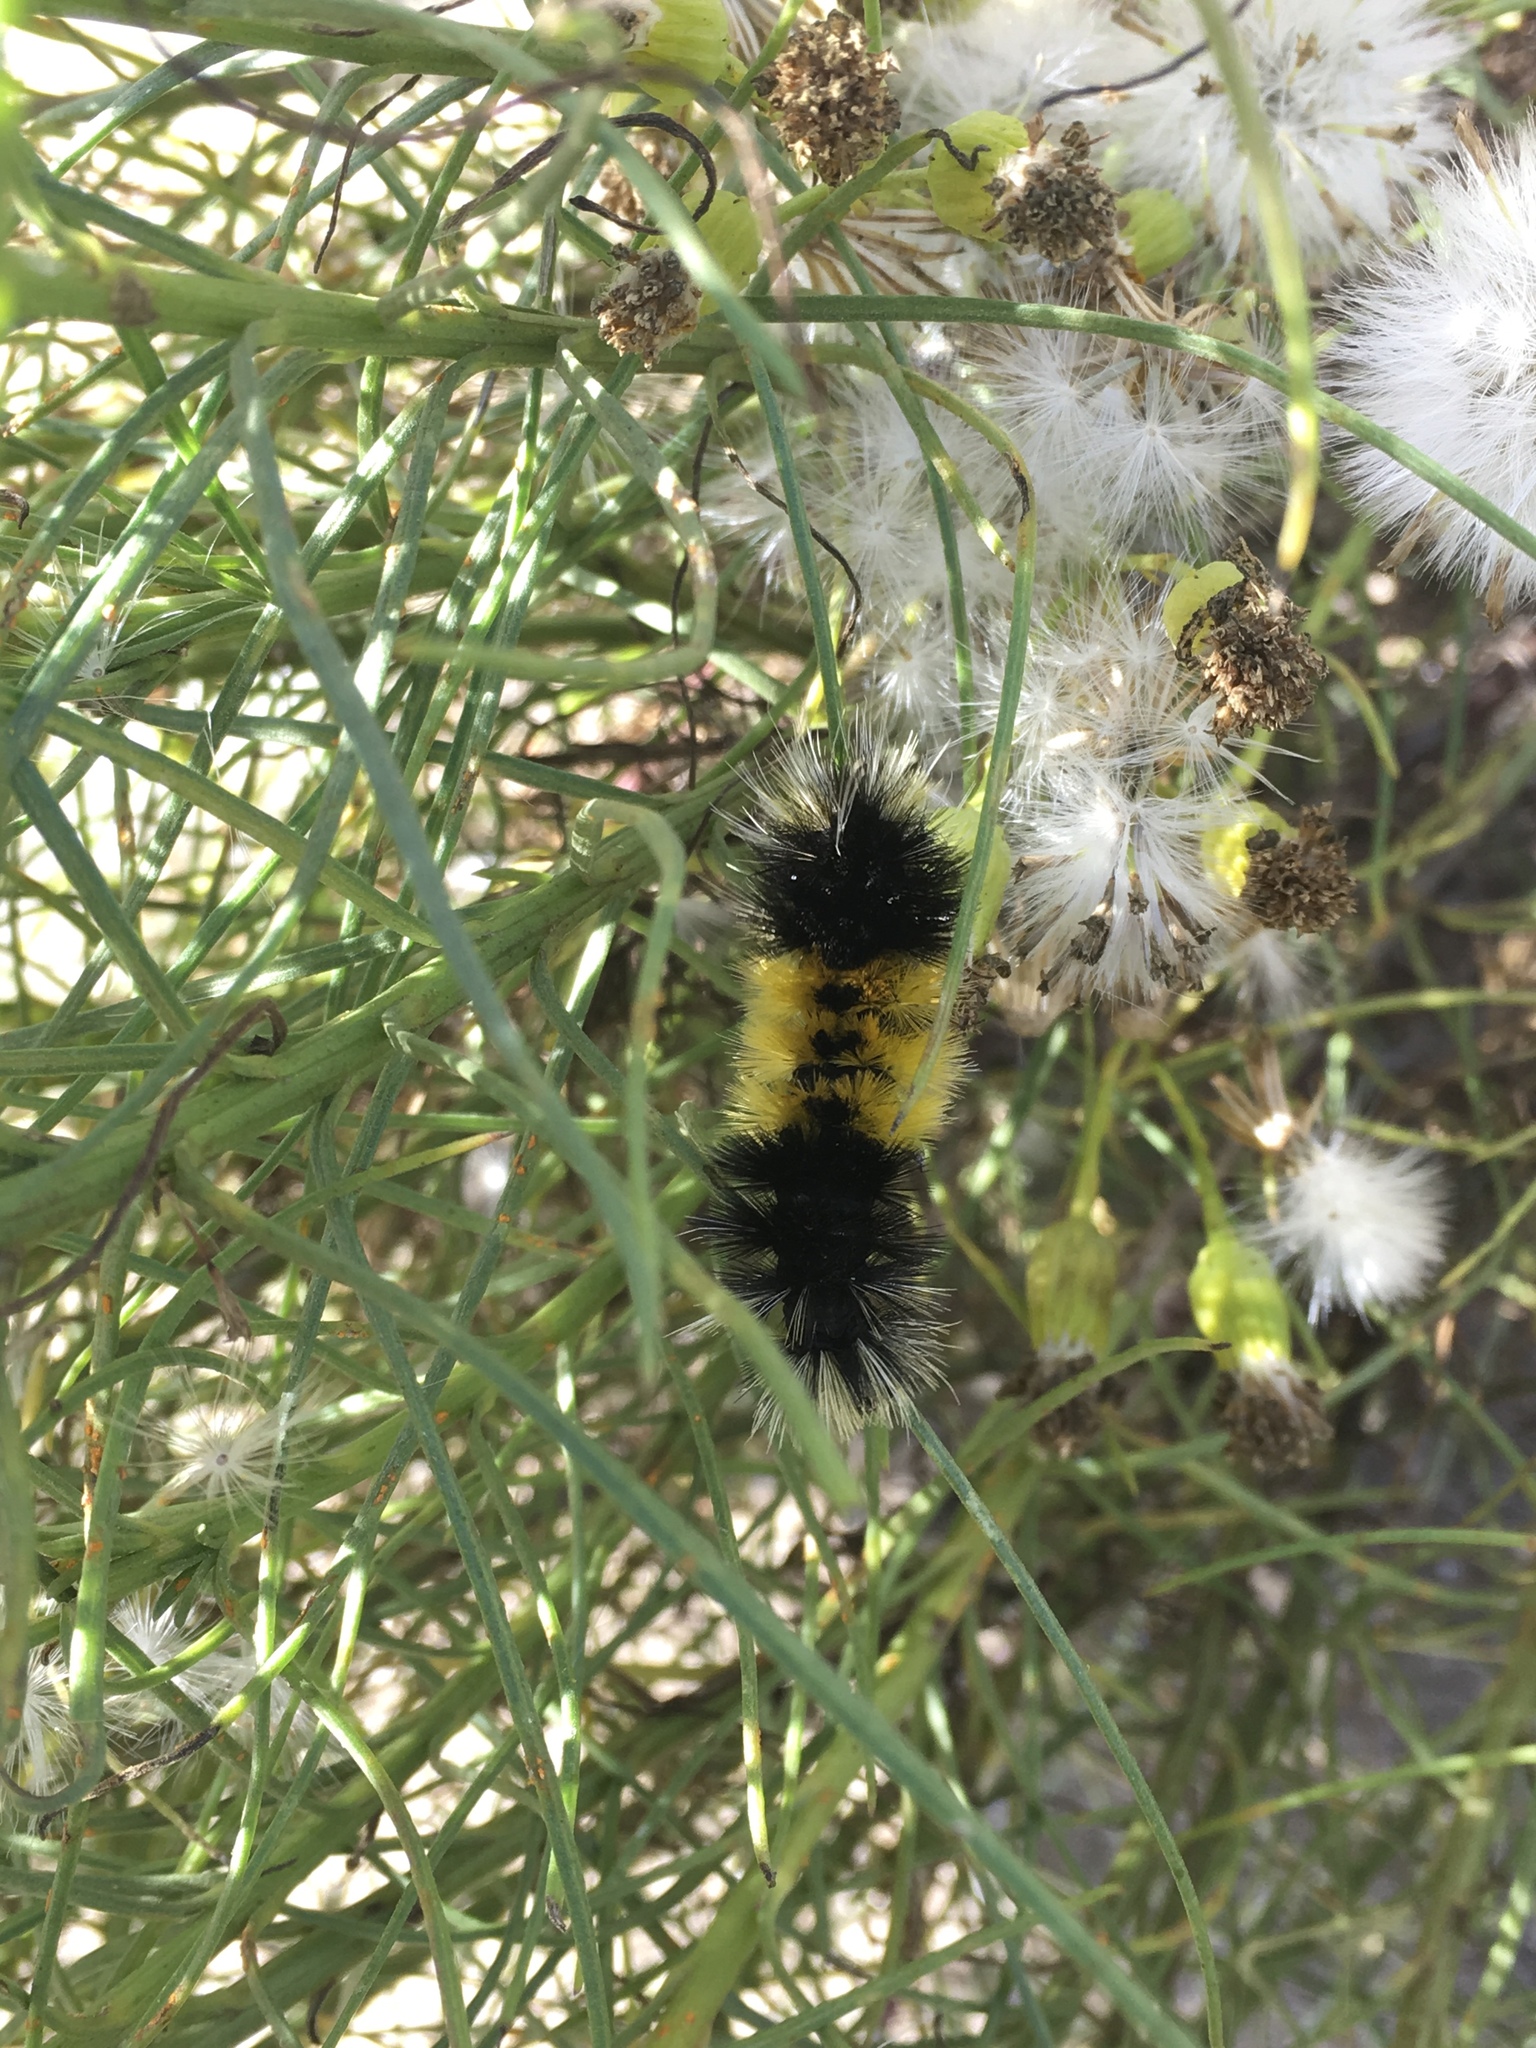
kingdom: Animalia
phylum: Arthropoda
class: Insecta
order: Lepidoptera
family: Erebidae
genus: Lophocampa
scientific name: Lophocampa maculata
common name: Spotted tussock moth
